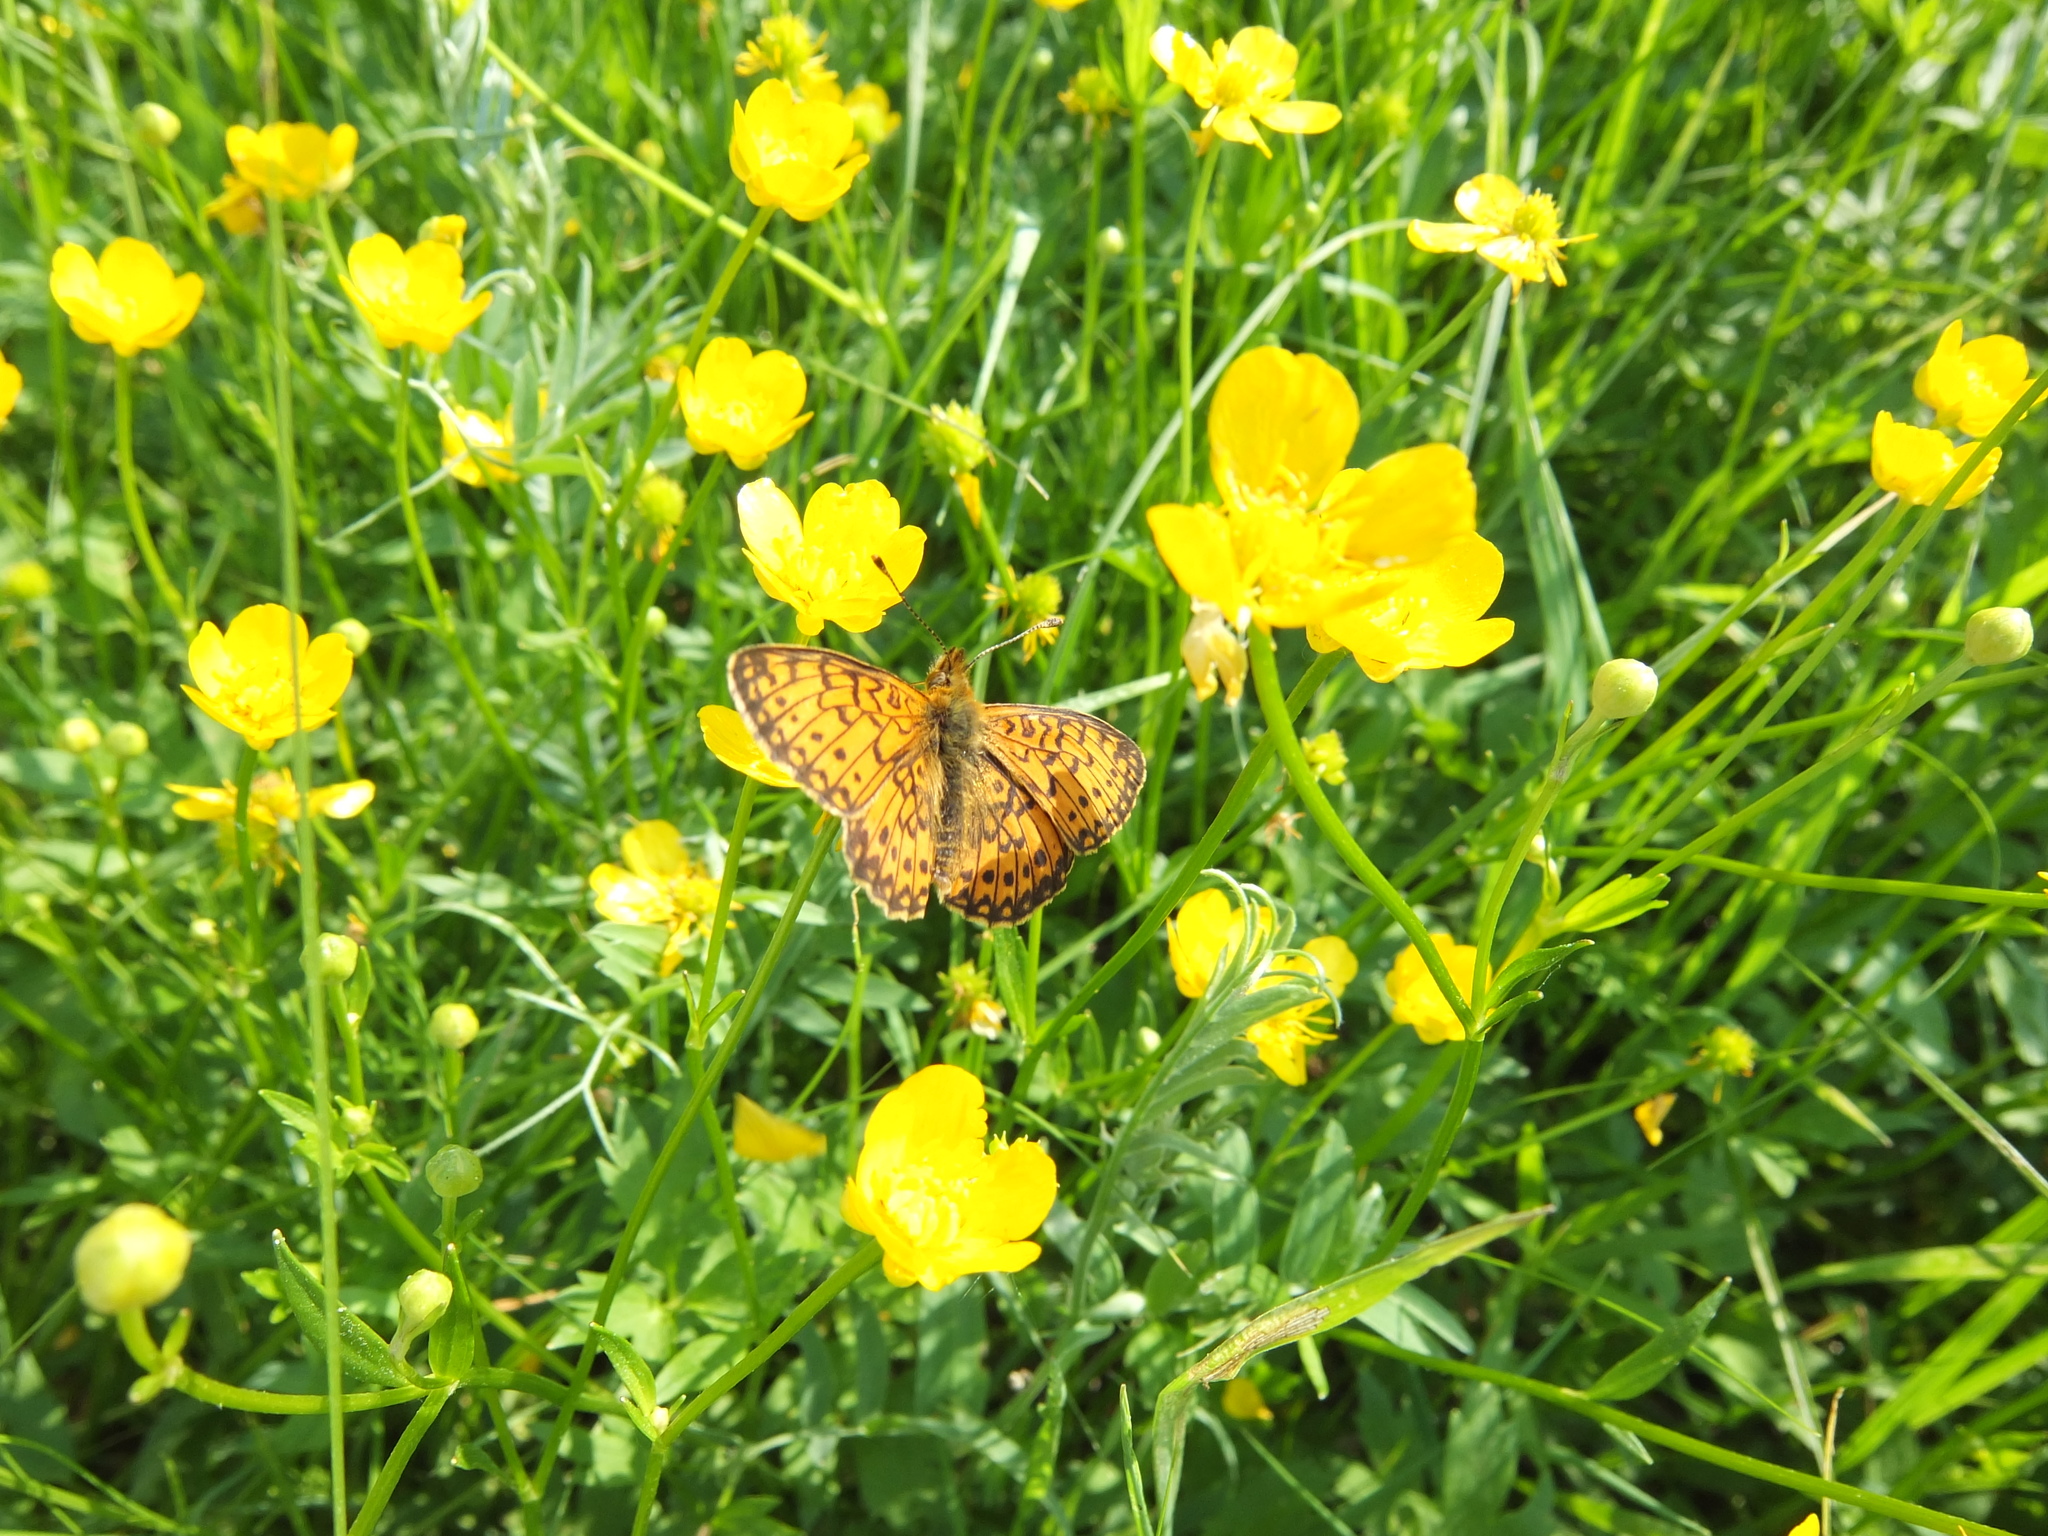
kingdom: Animalia
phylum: Arthropoda
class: Insecta
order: Lepidoptera
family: Nymphalidae
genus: Boloria
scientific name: Boloria selene
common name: Small pearl-bordered fritillary
